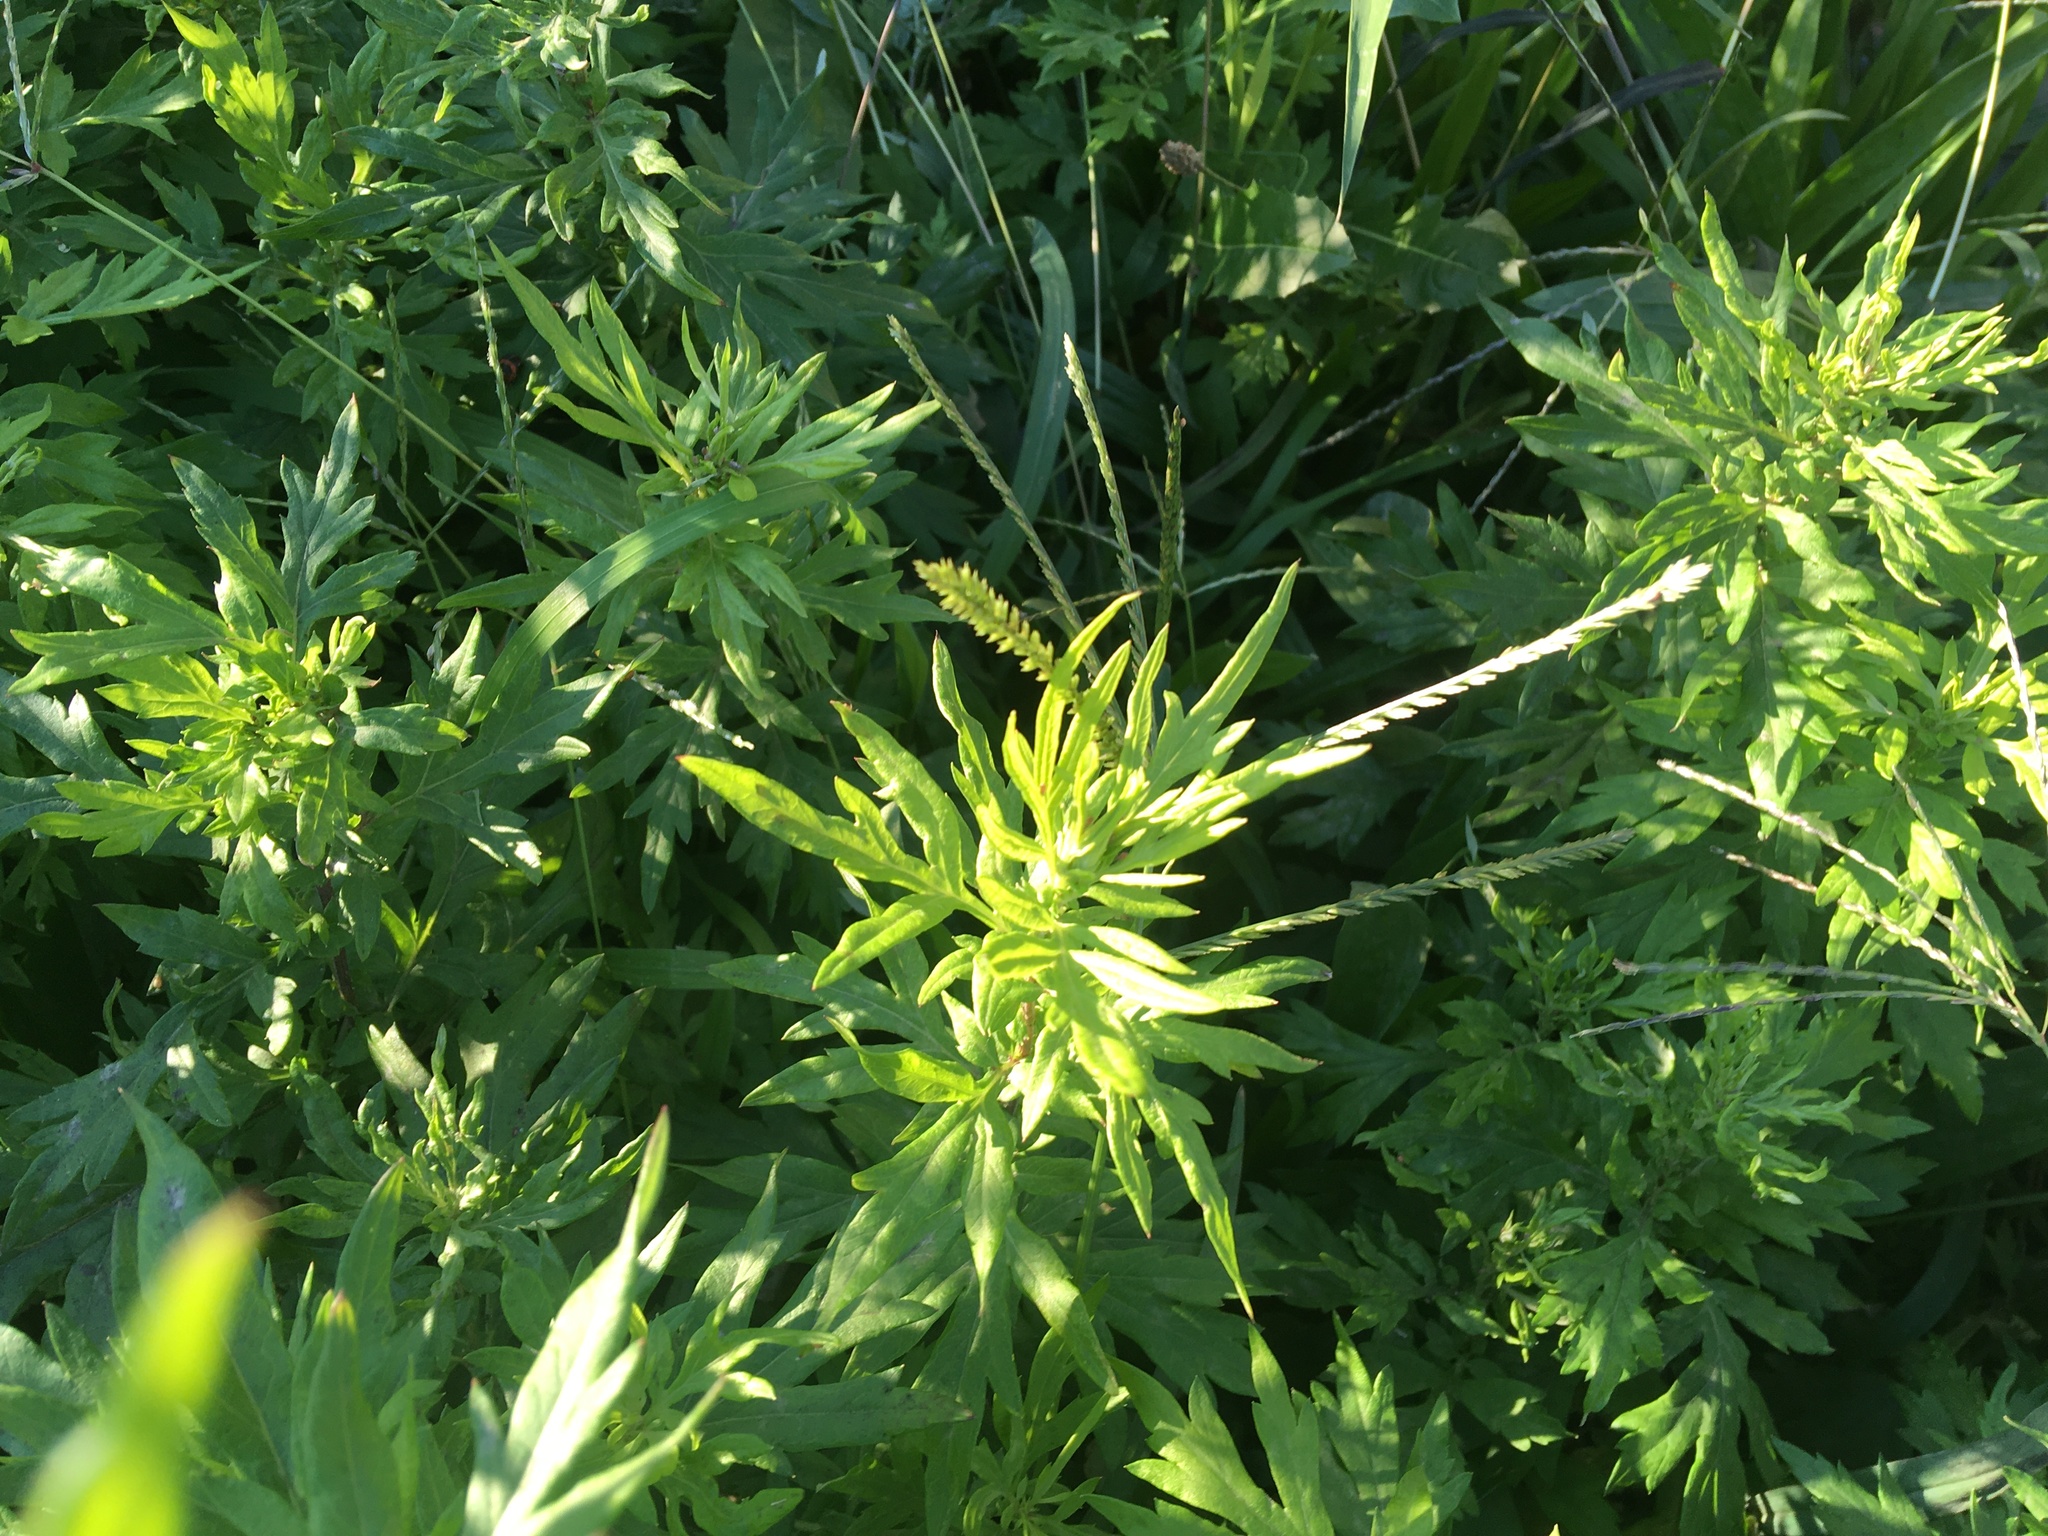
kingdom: Plantae
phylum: Tracheophyta
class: Magnoliopsida
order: Asterales
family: Asteraceae
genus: Artemisia
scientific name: Artemisia vulgaris
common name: Mugwort
